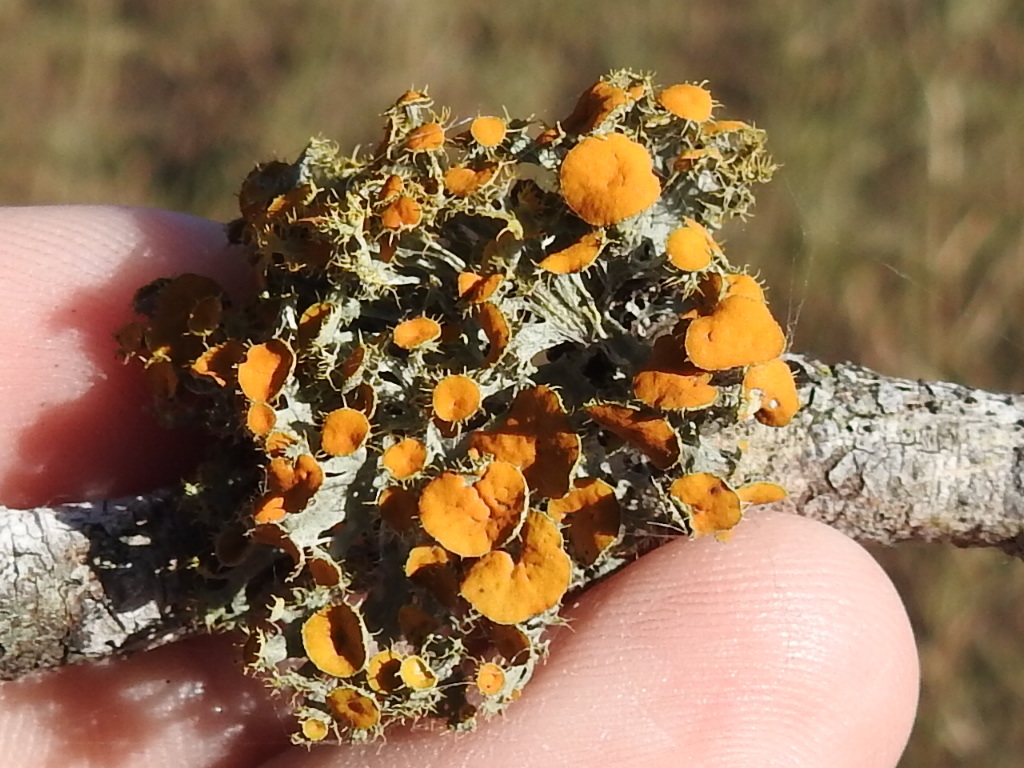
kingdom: Fungi
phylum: Ascomycota
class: Lecanoromycetes
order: Teloschistales
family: Teloschistaceae
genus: Niorma
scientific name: Niorma chrysophthalma
